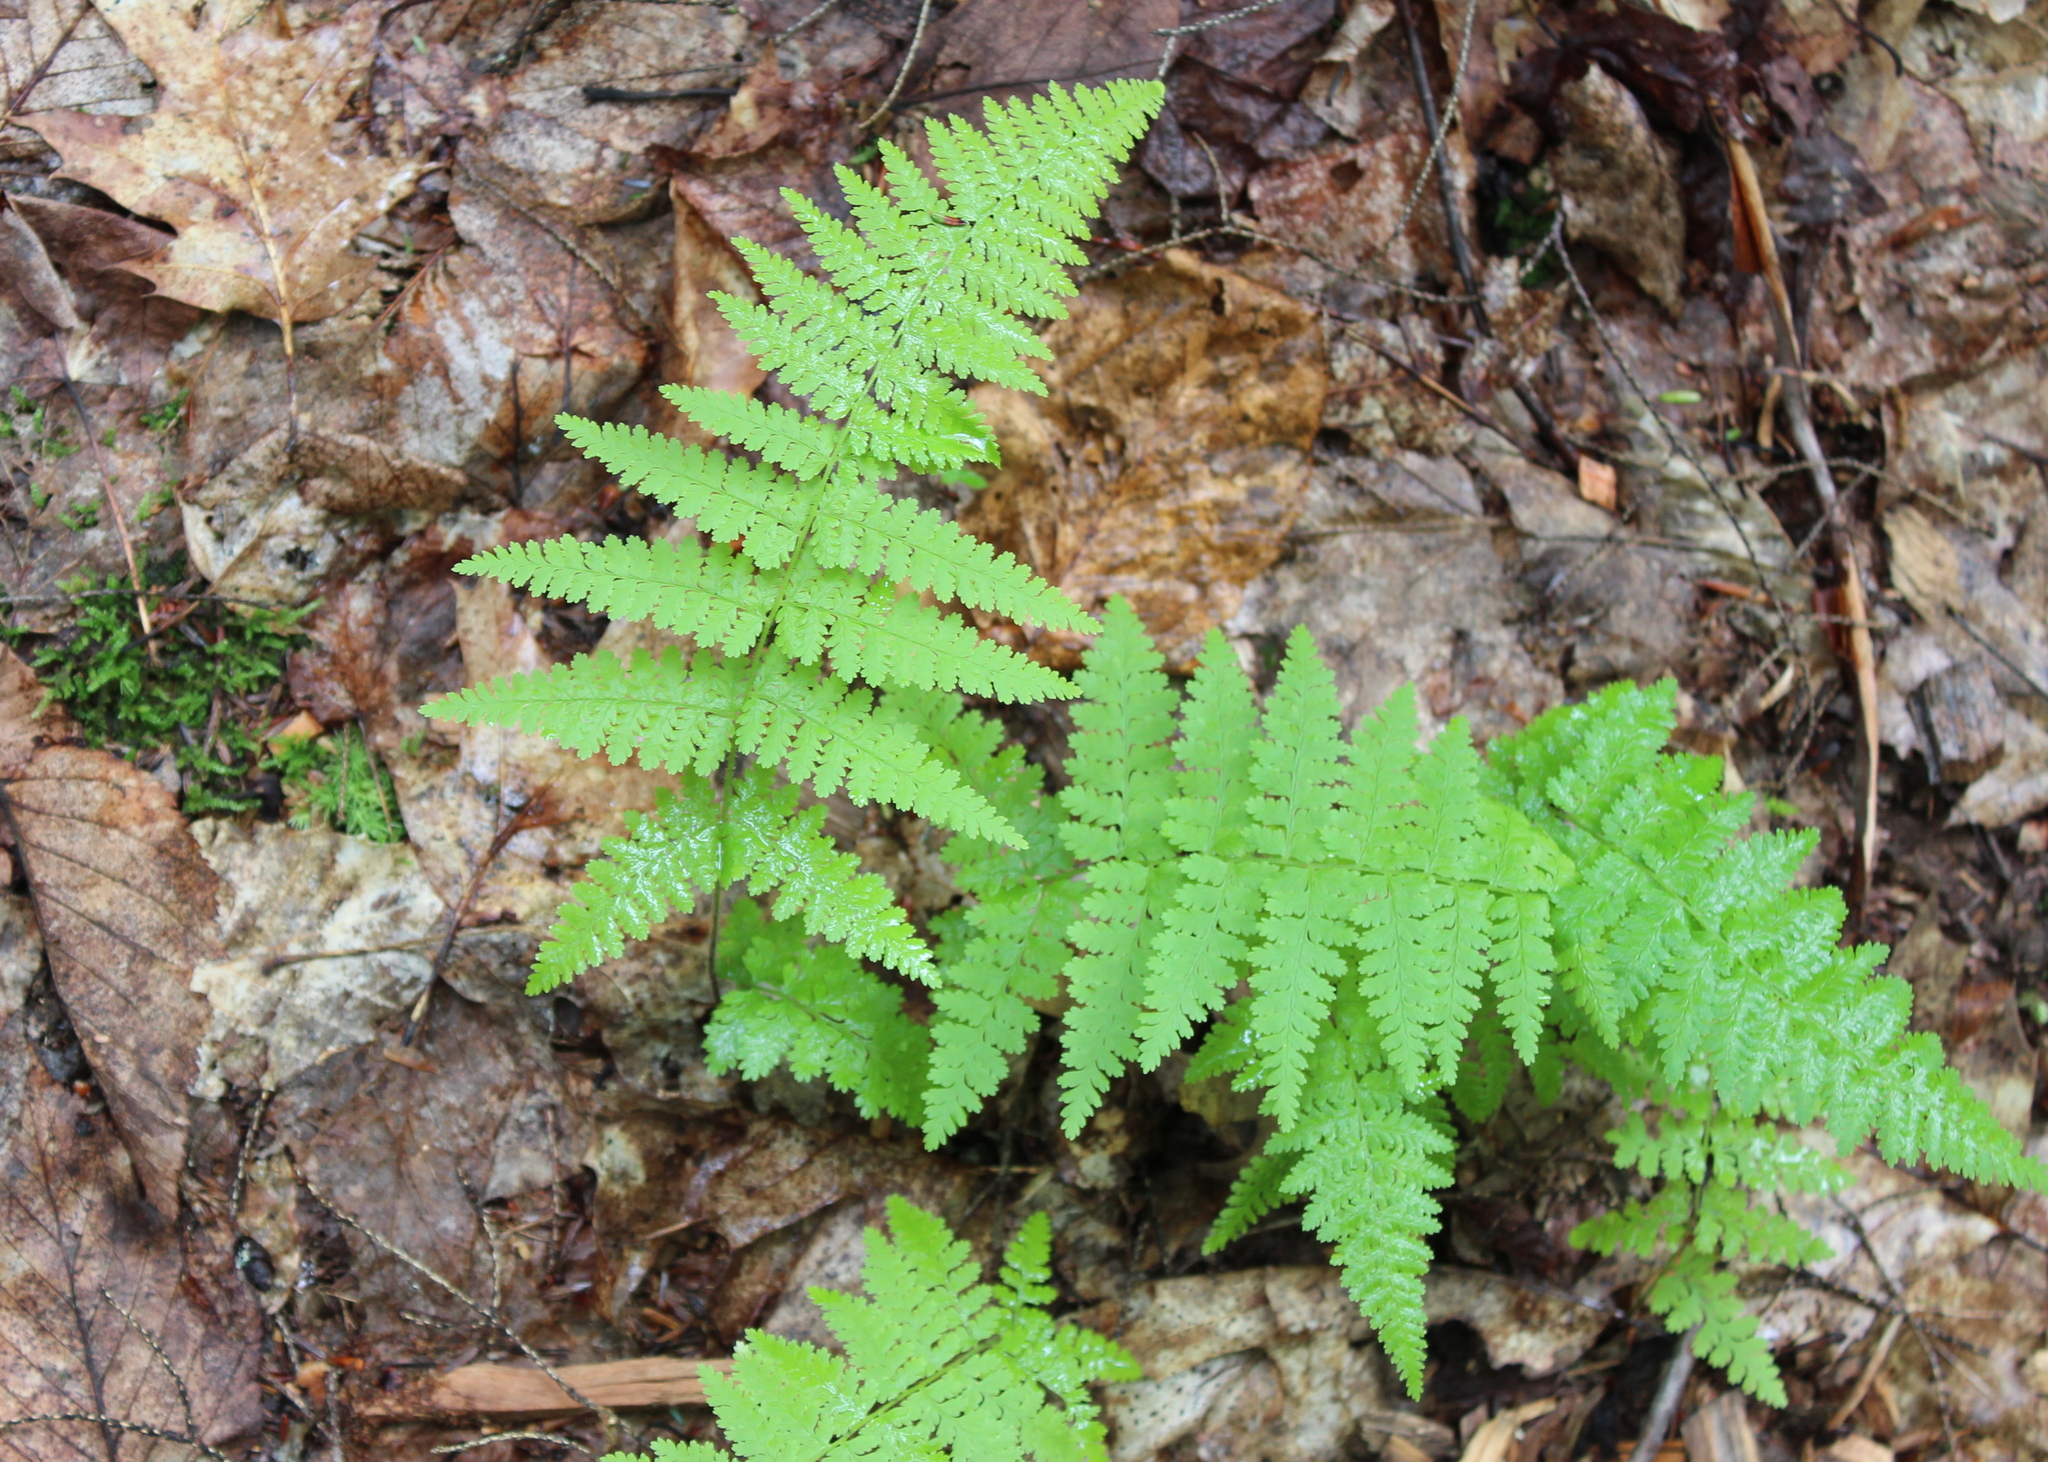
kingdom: Plantae
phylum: Tracheophyta
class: Polypodiopsida
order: Polypodiales
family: Dennstaedtiaceae
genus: Sitobolium
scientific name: Sitobolium punctilobum
